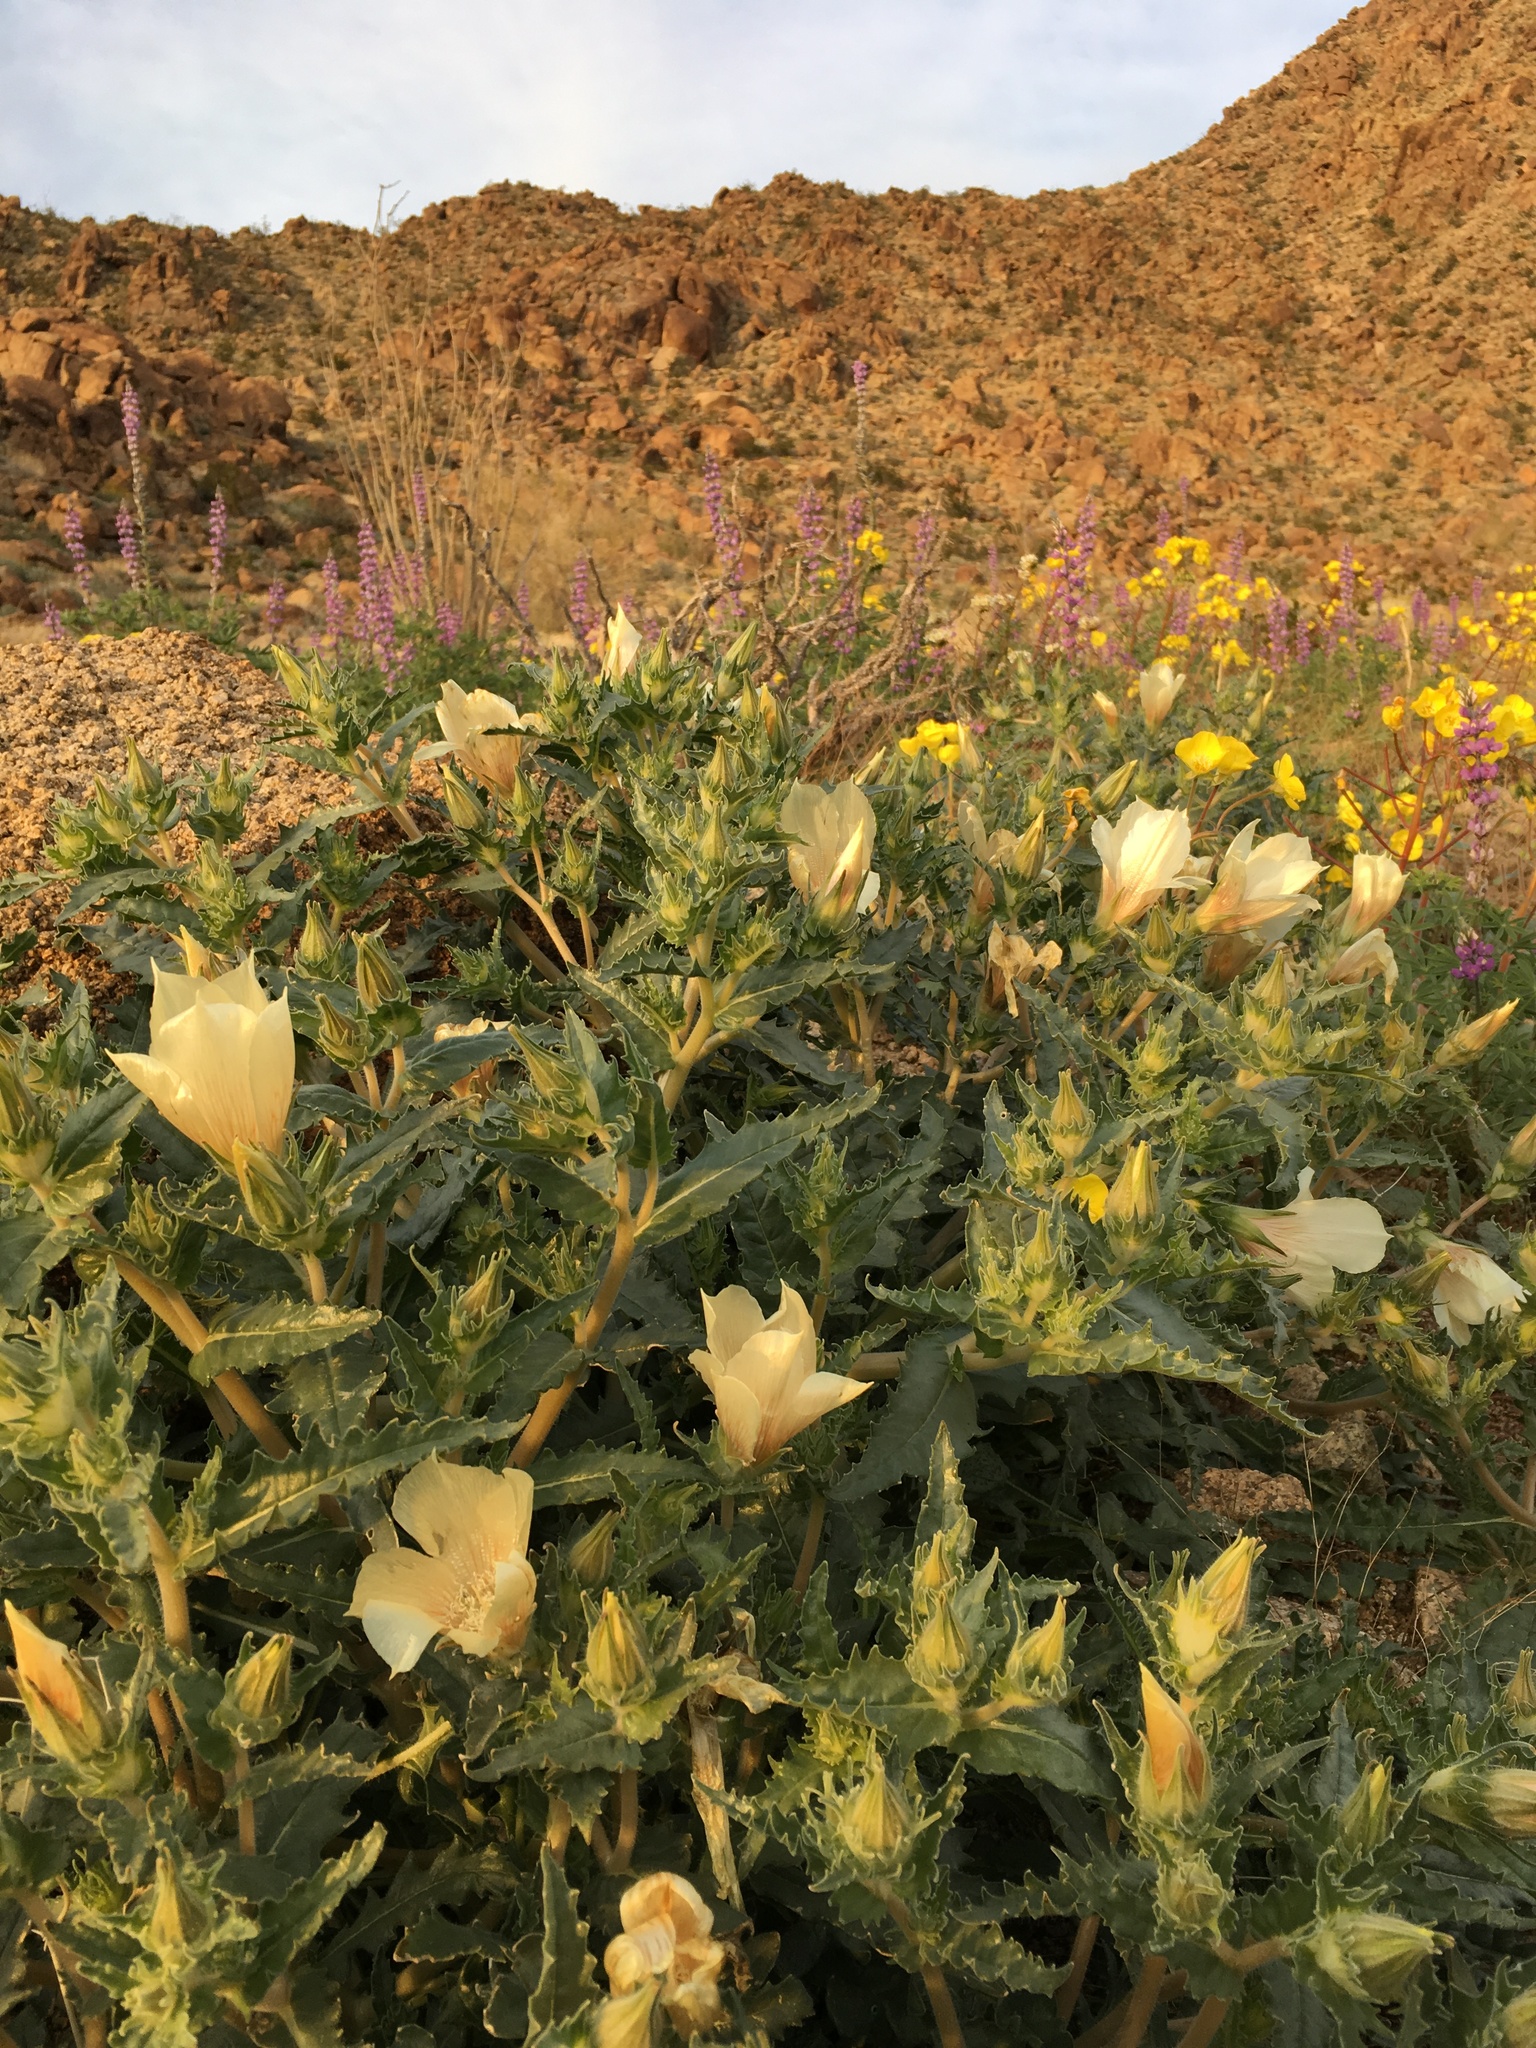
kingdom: Plantae
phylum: Tracheophyta
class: Magnoliopsida
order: Cornales
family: Loasaceae
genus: Mentzelia
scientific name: Mentzelia involucrata
